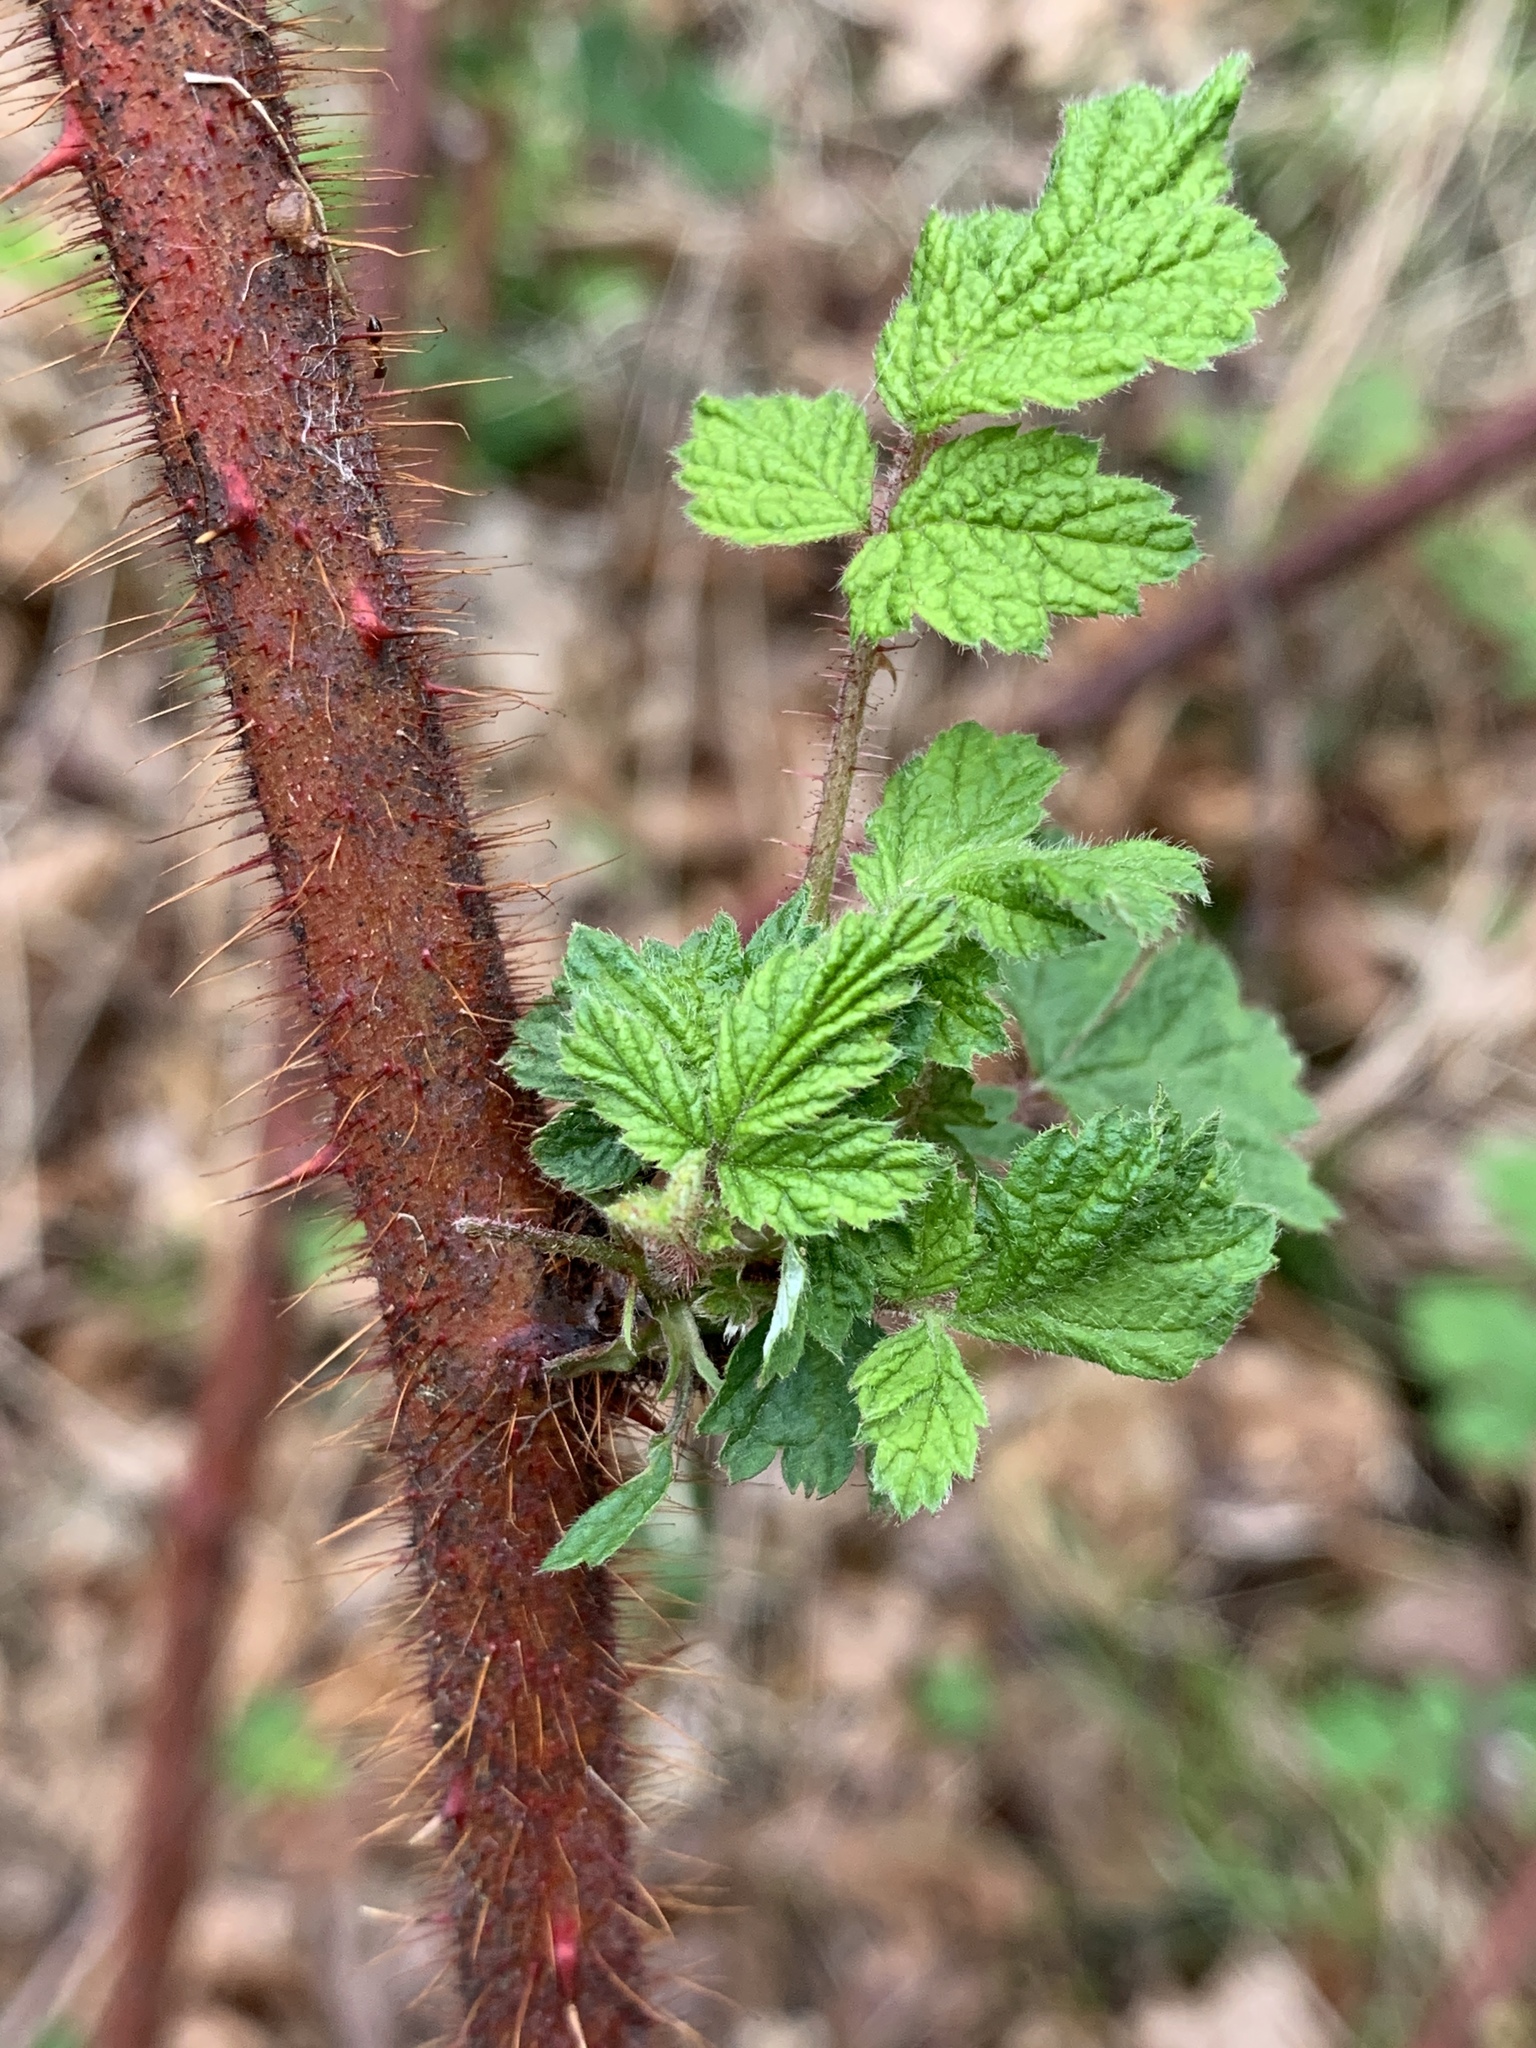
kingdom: Plantae
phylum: Tracheophyta
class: Magnoliopsida
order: Rosales
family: Rosaceae
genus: Rubus
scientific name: Rubus phoenicolasius
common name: Japanese wineberry
